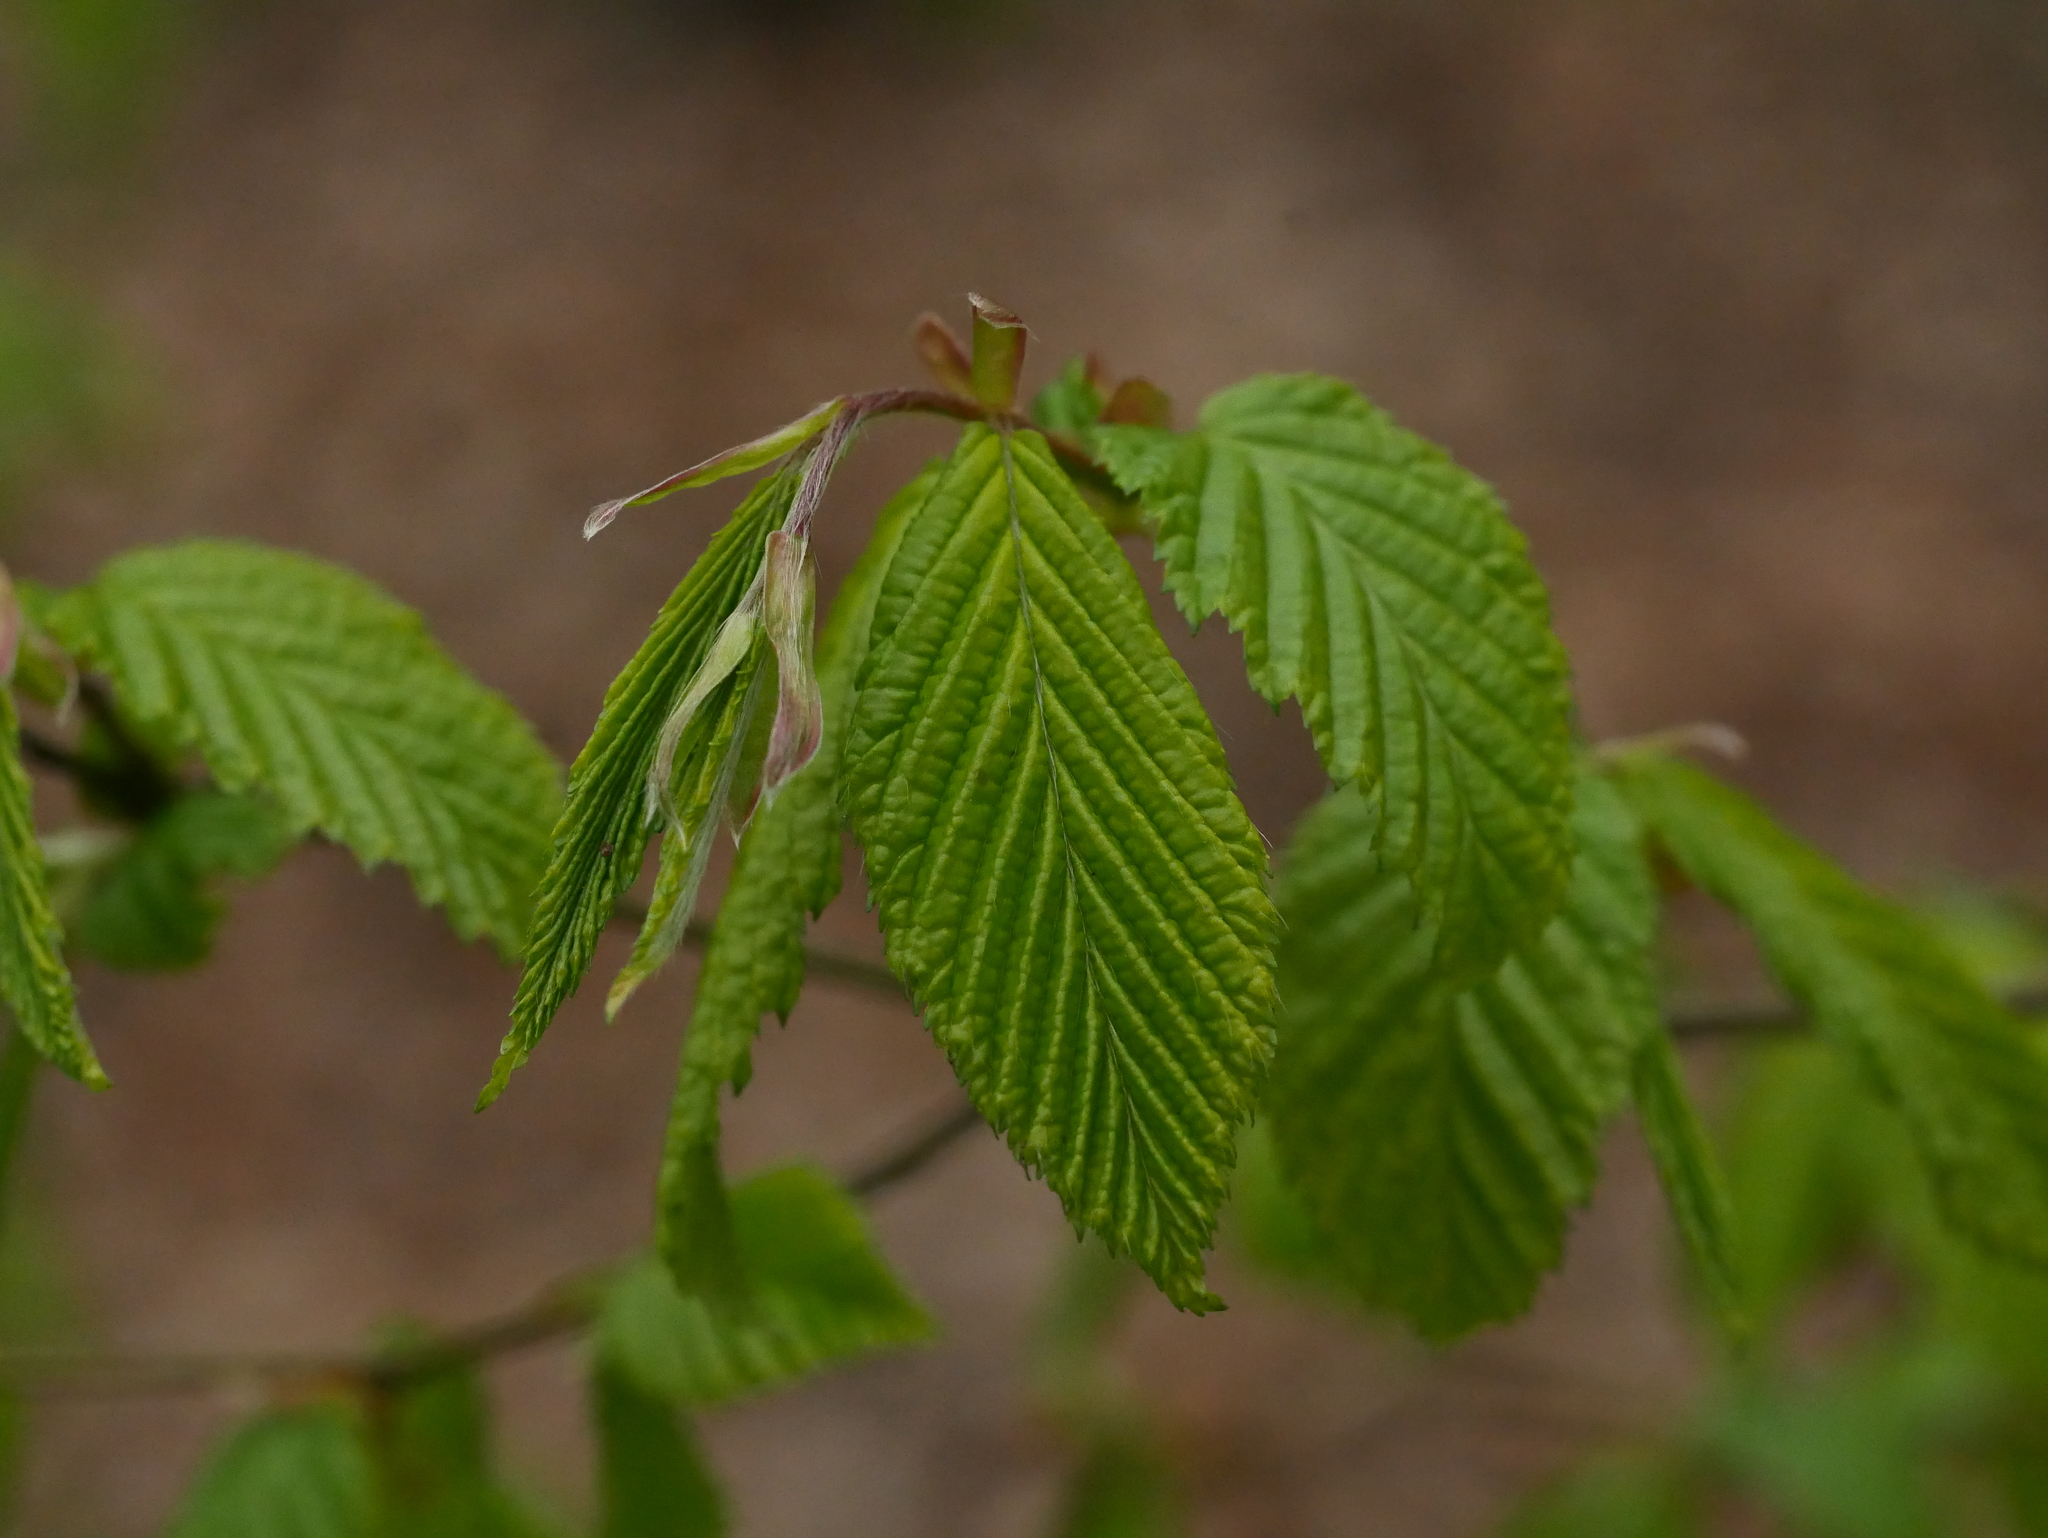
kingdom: Plantae
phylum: Tracheophyta
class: Magnoliopsida
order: Fagales
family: Betulaceae
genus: Carpinus
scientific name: Carpinus betulus
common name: Hornbeam
